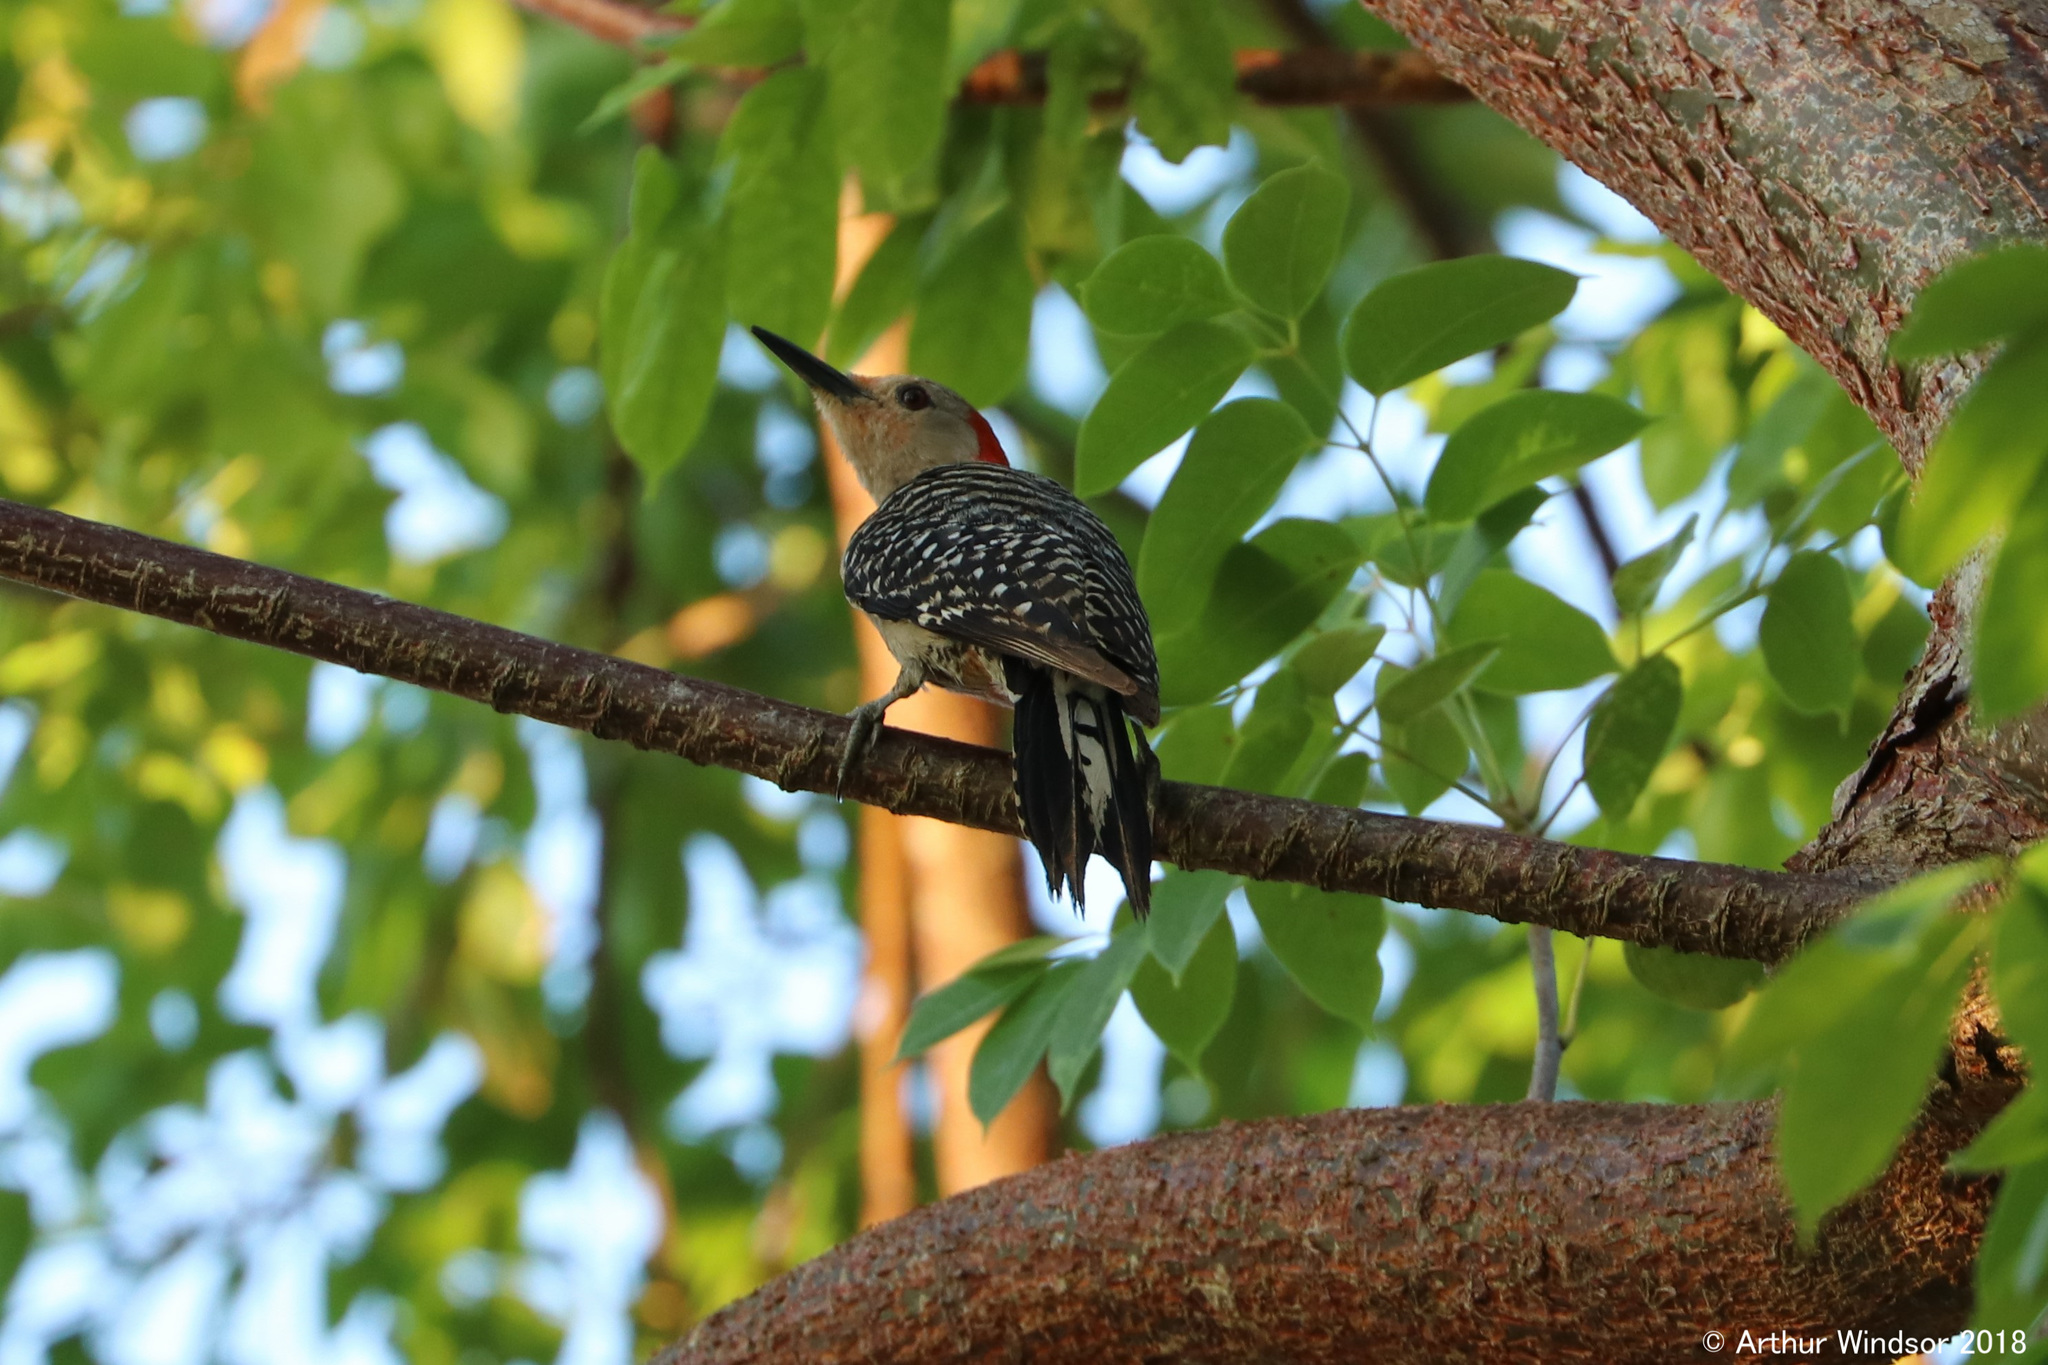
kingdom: Animalia
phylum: Chordata
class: Aves
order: Piciformes
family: Picidae
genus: Melanerpes
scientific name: Melanerpes carolinus
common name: Red-bellied woodpecker
